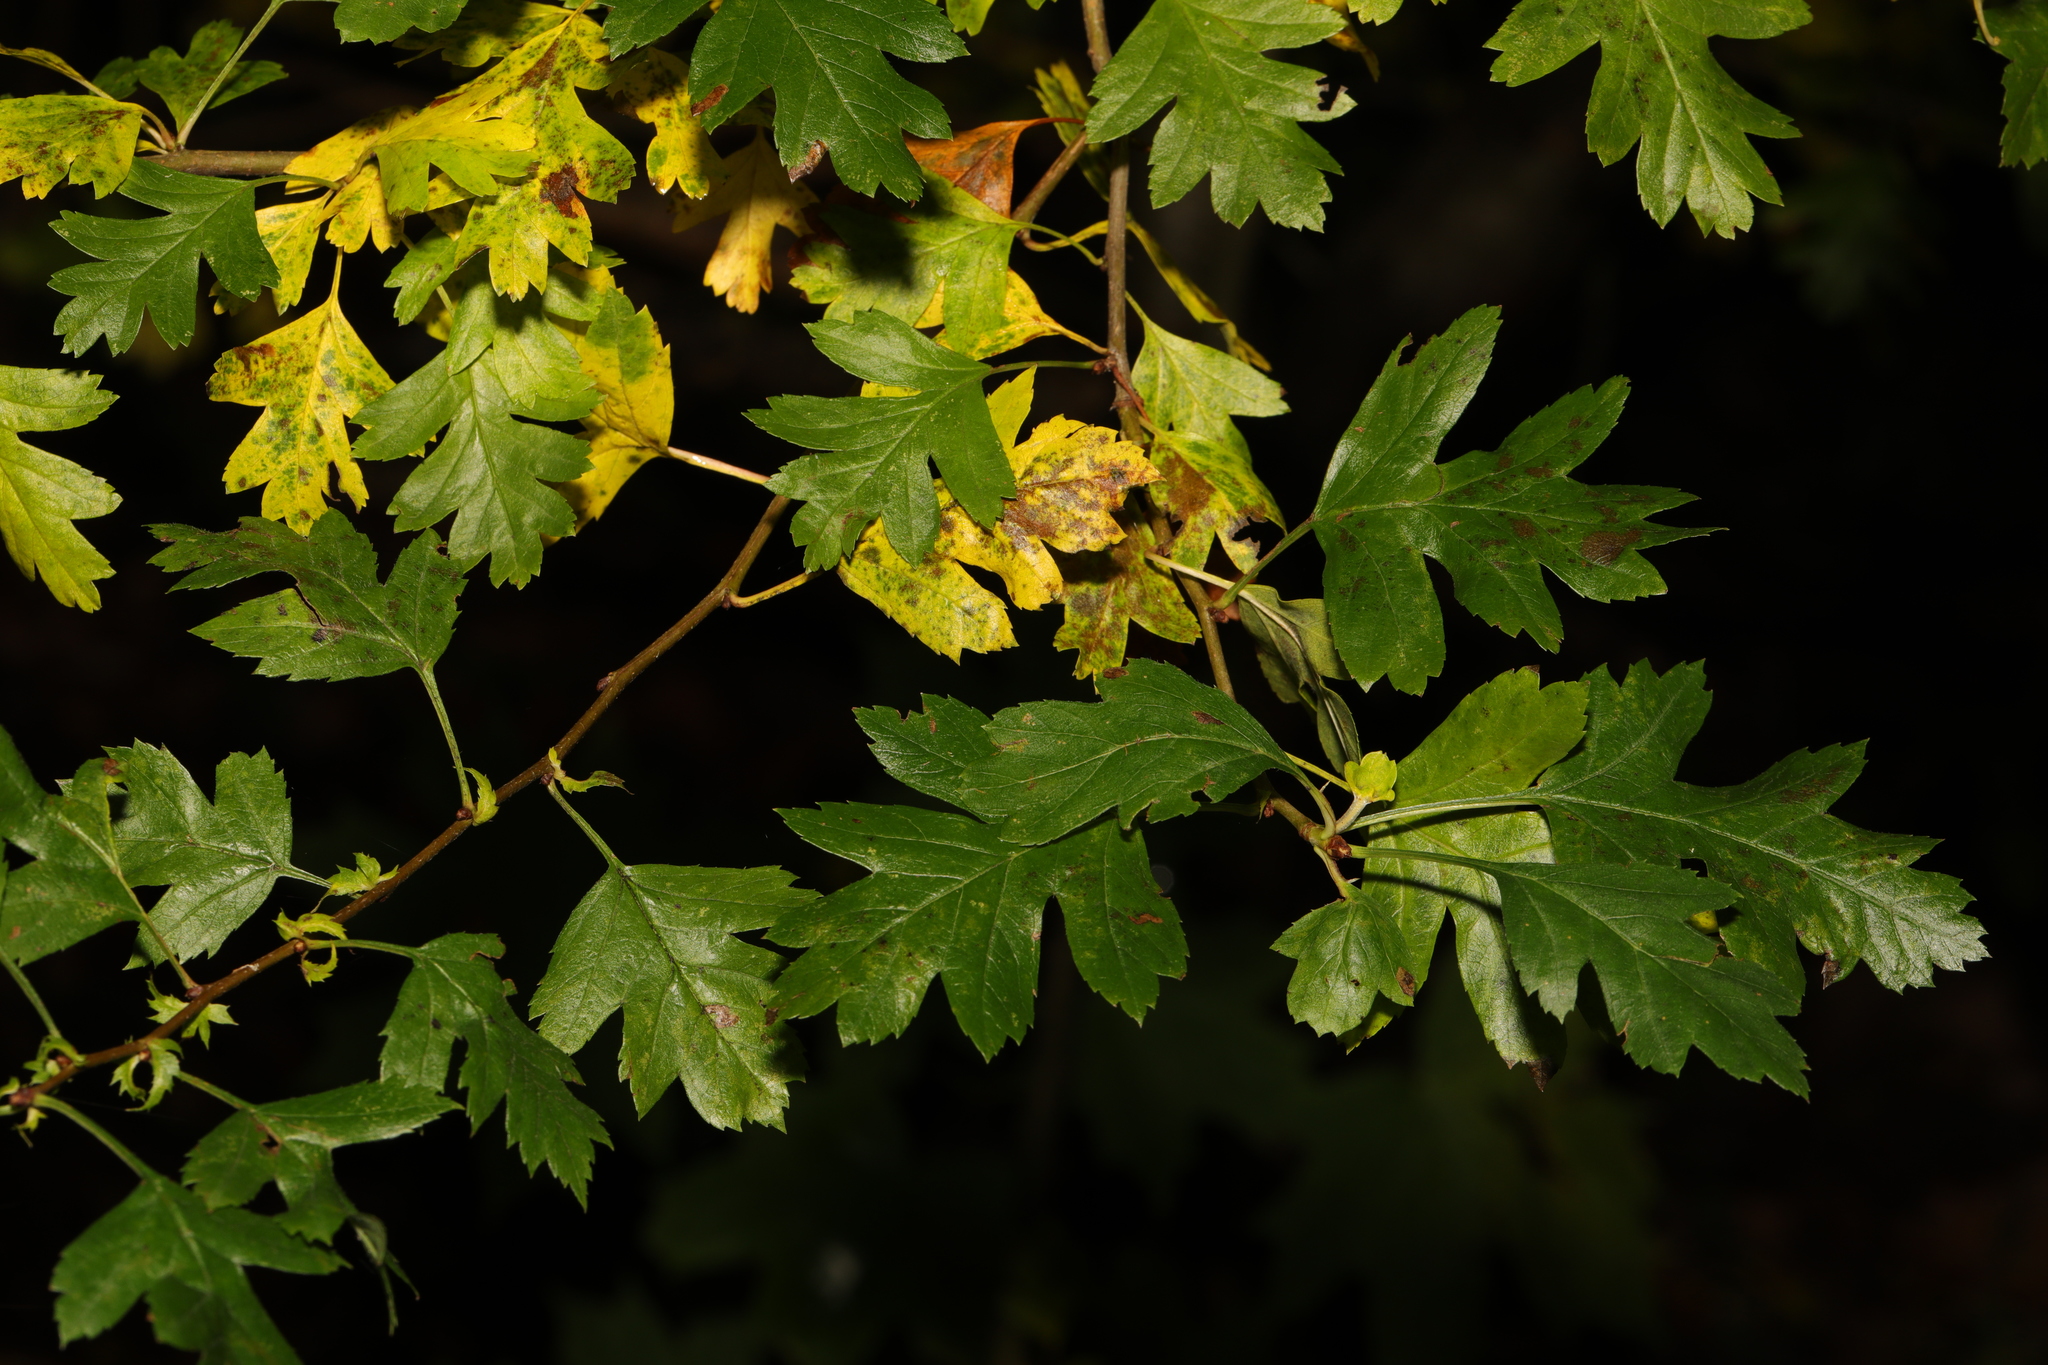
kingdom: Plantae
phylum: Tracheophyta
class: Magnoliopsida
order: Rosales
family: Rosaceae
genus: Crataegus
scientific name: Crataegus monogyna
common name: Hawthorn
